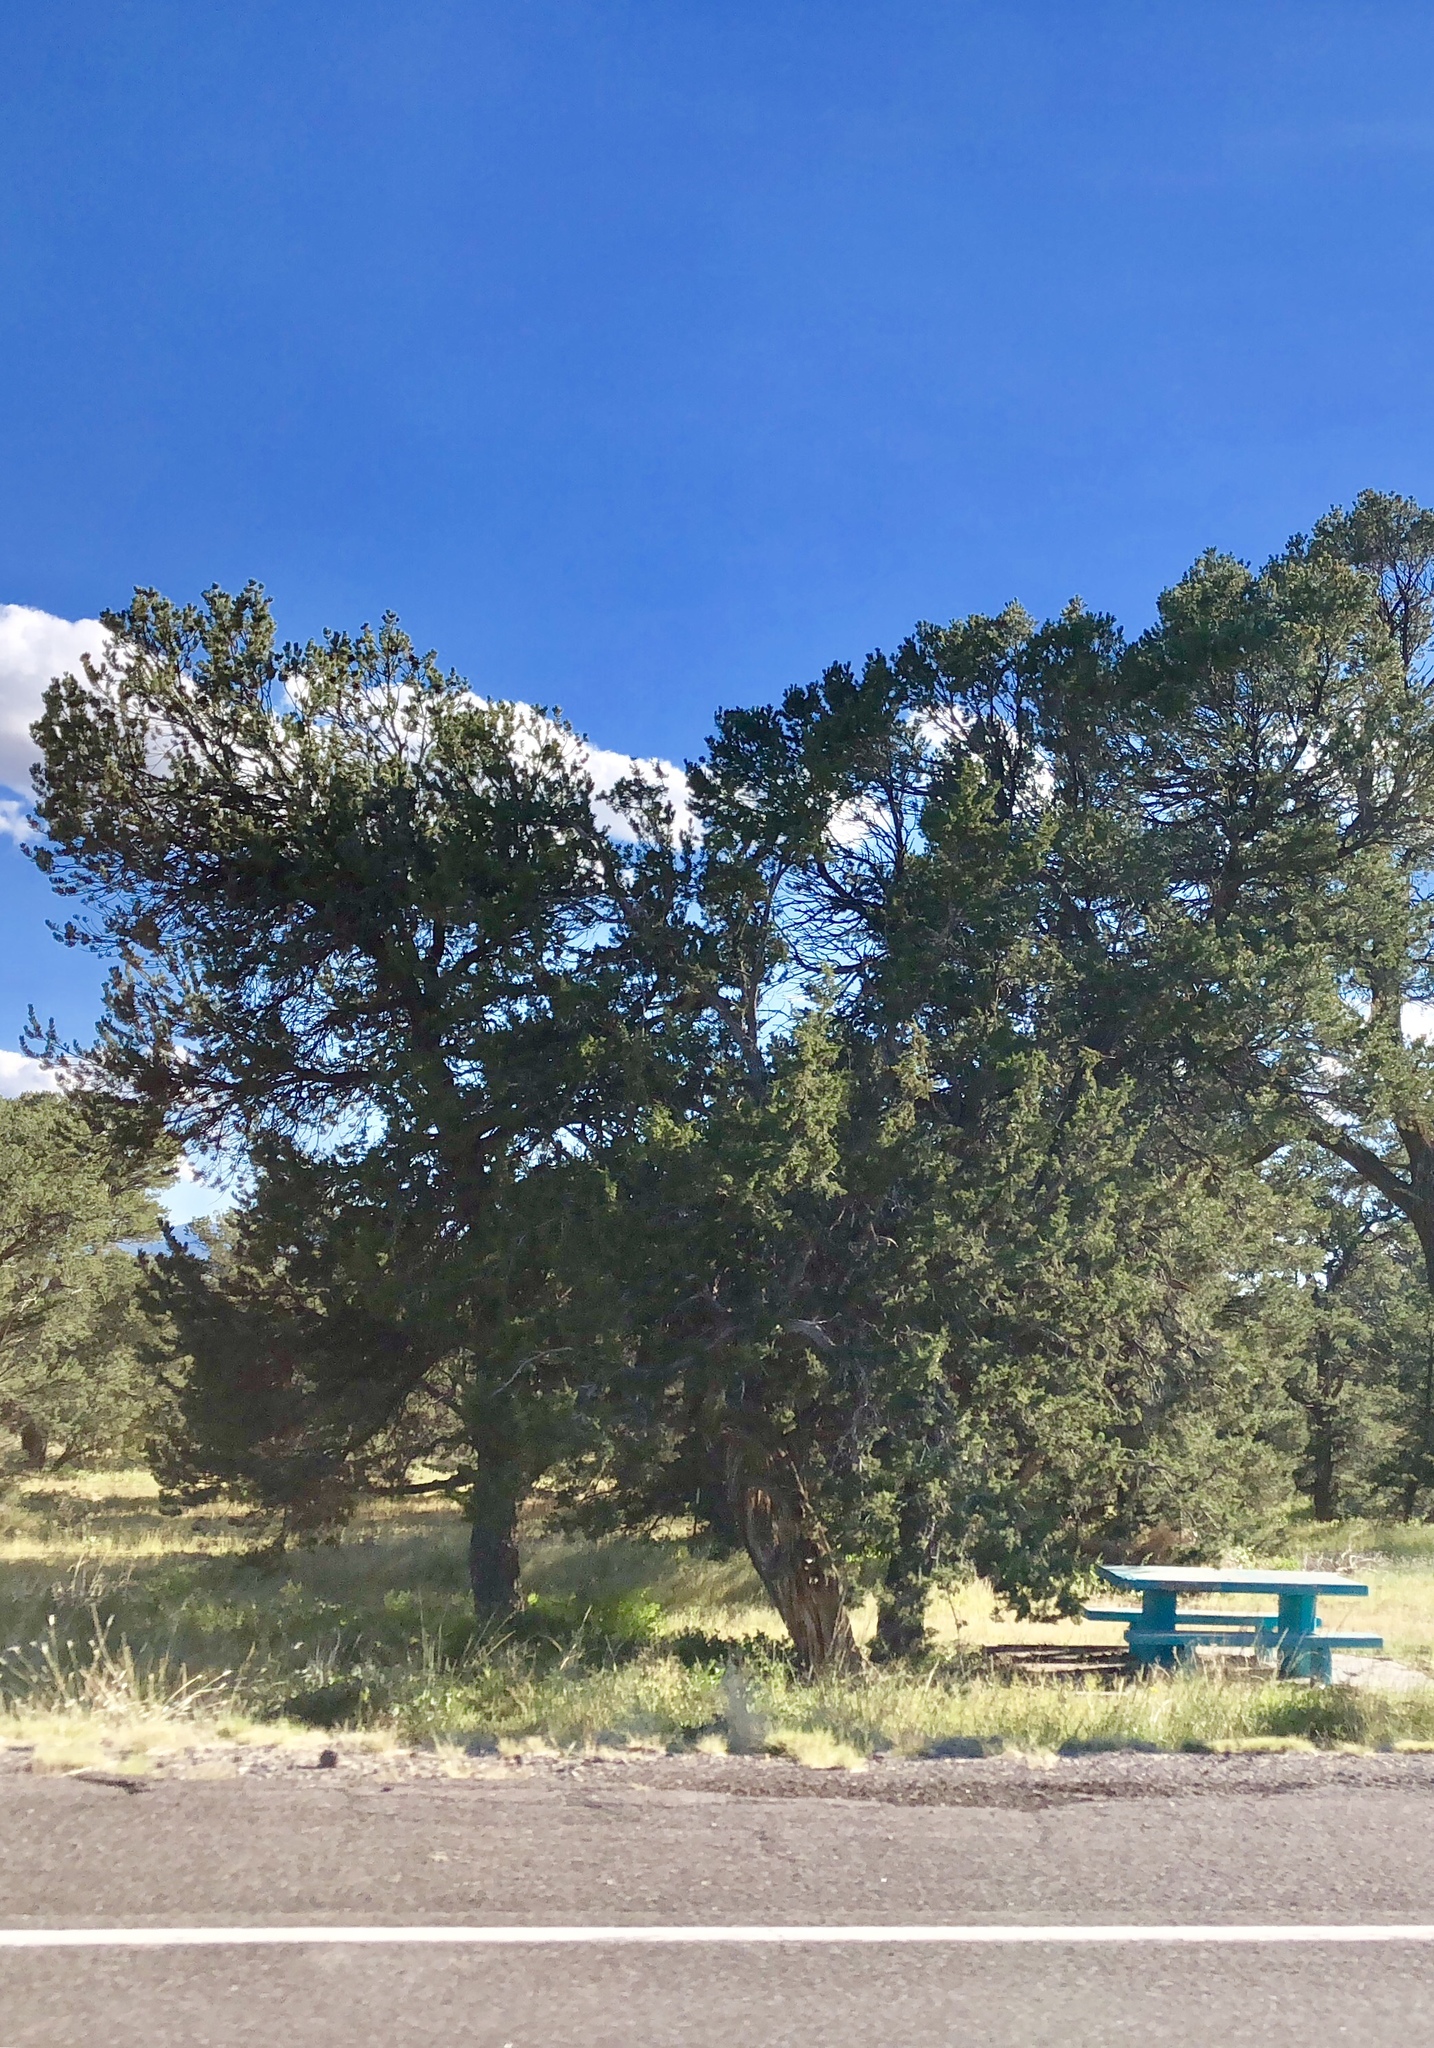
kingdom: Plantae
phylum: Tracheophyta
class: Pinopsida
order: Pinales
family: Pinaceae
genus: Pinus
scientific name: Pinus edulis
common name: Colorado pinyon
